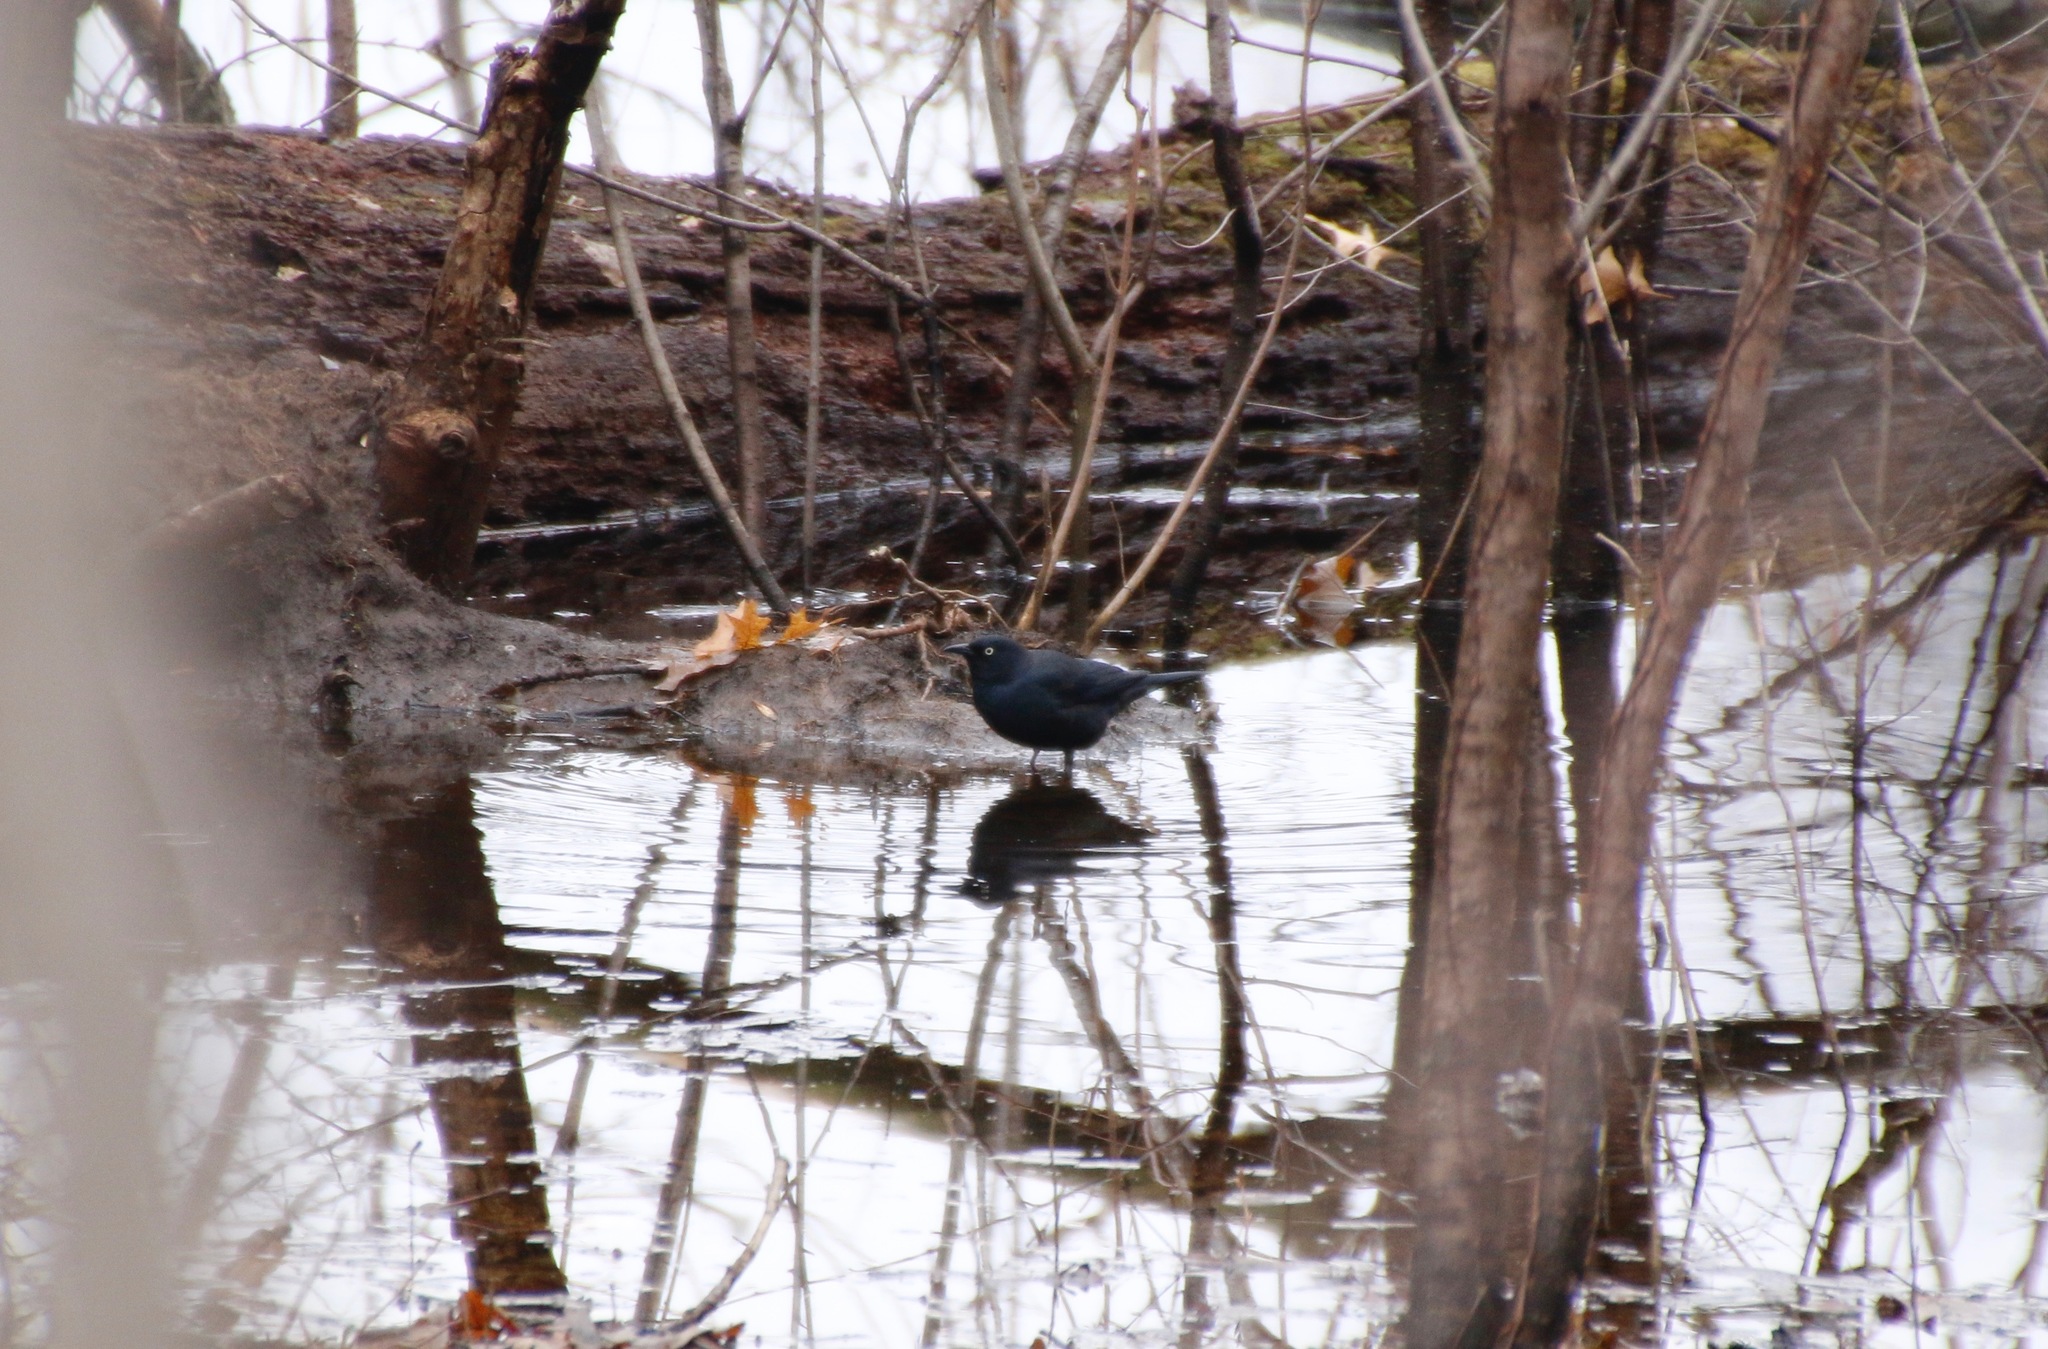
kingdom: Animalia
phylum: Chordata
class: Aves
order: Passeriformes
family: Icteridae
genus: Euphagus
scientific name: Euphagus carolinus
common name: Rusty blackbird
